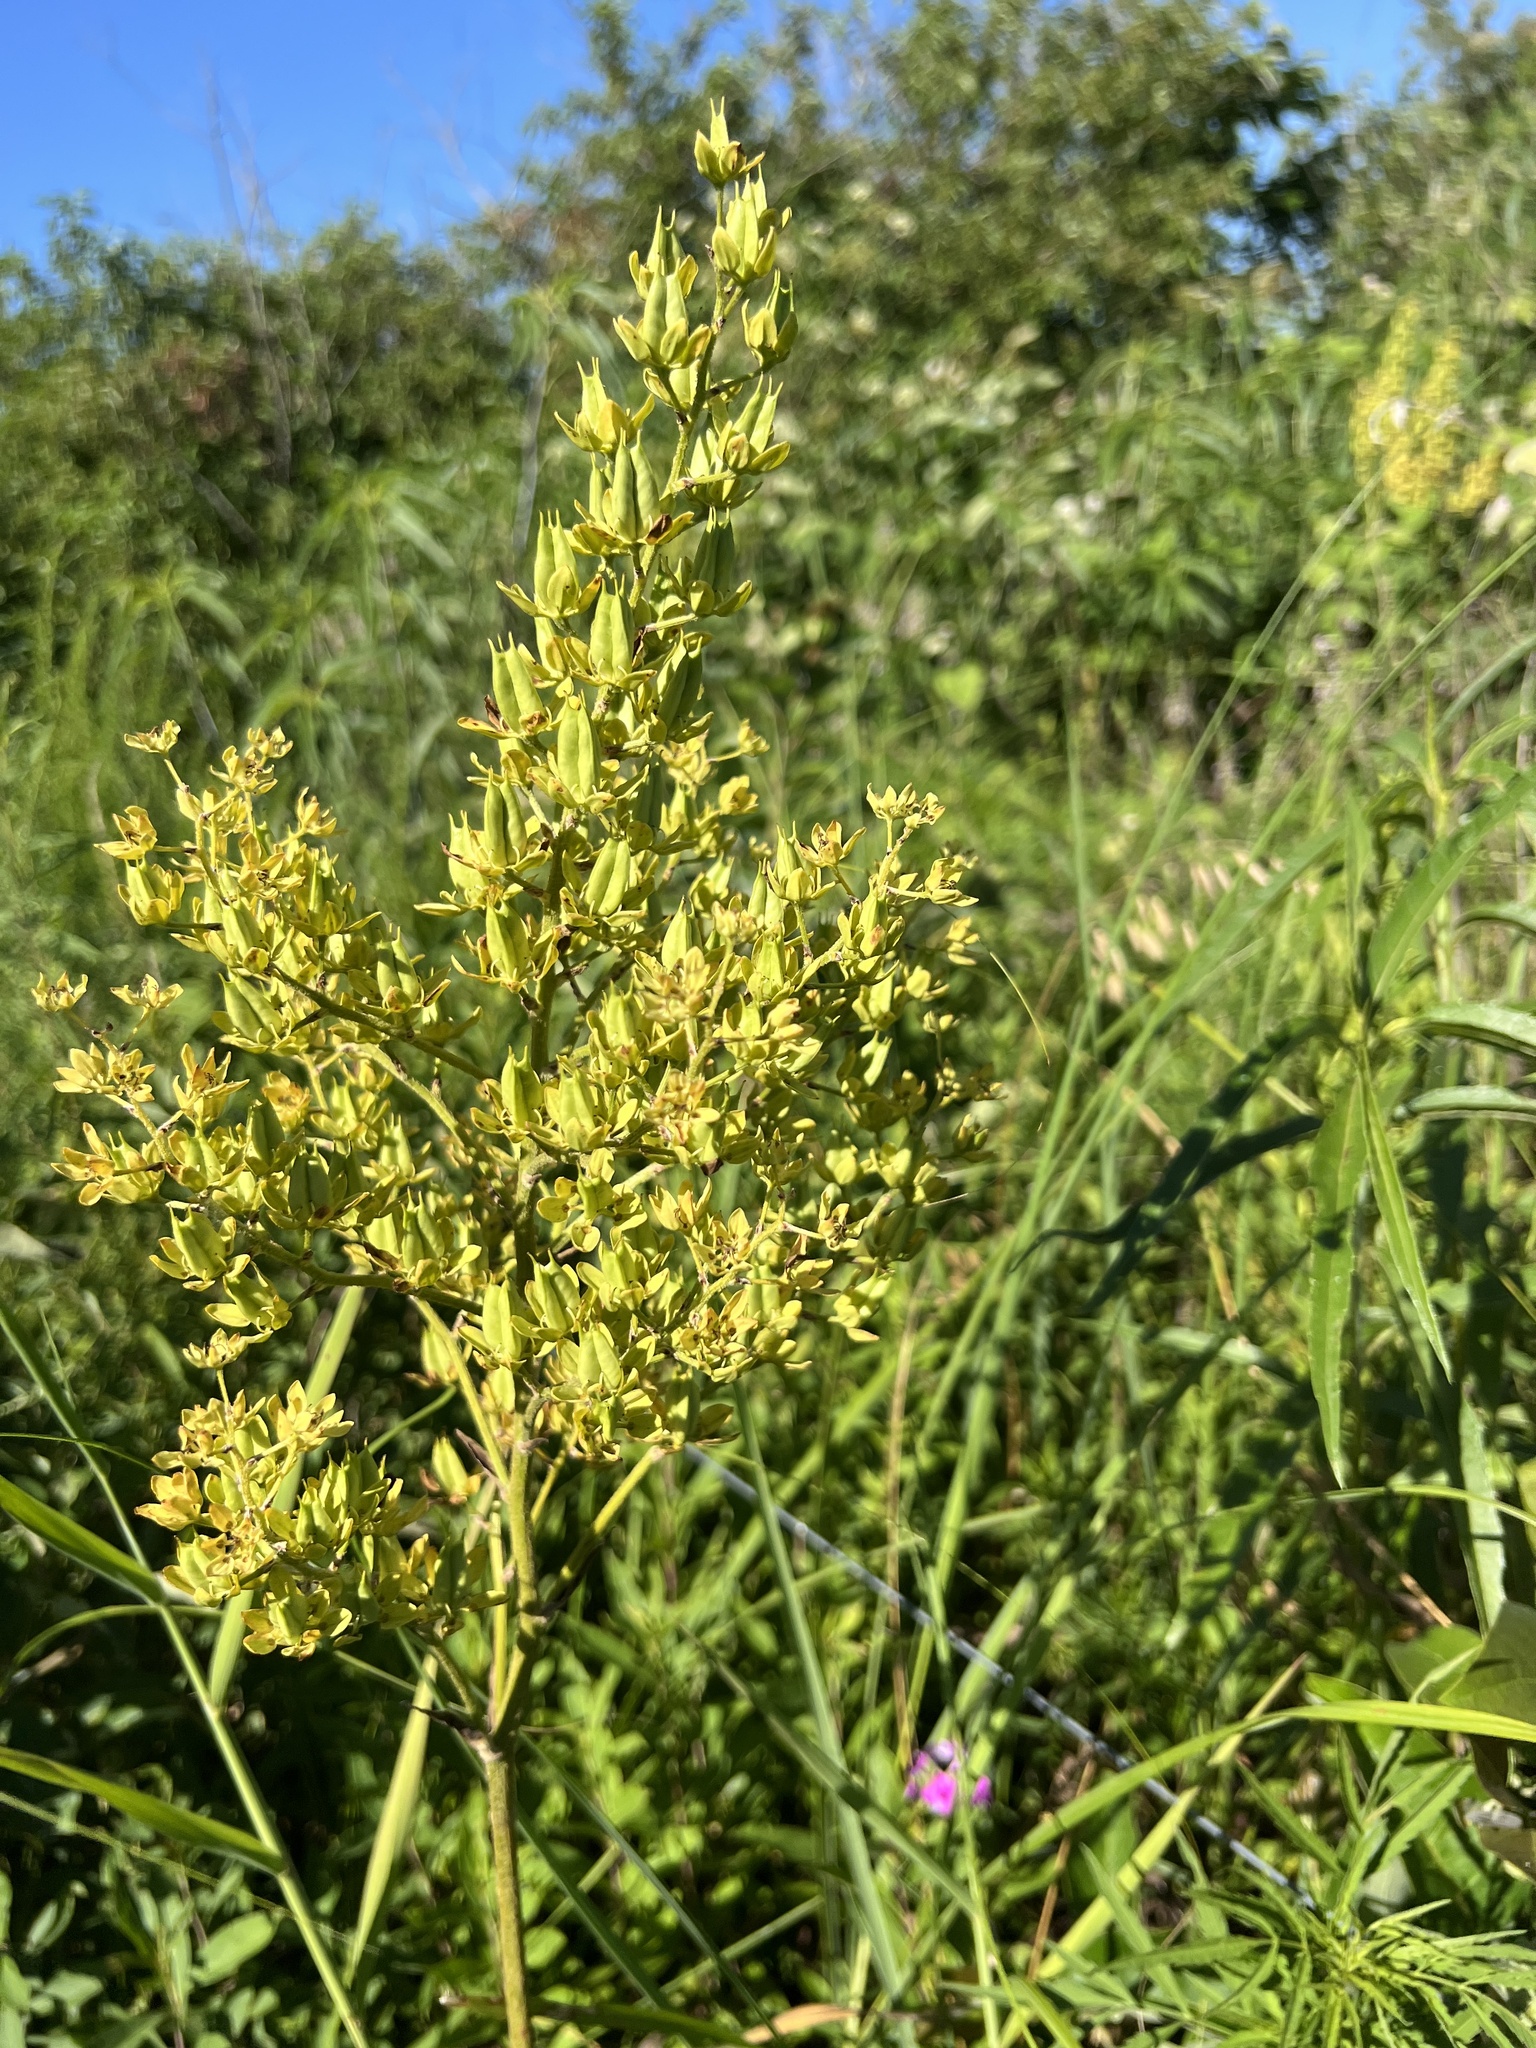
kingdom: Plantae
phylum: Tracheophyta
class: Liliopsida
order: Liliales
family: Melanthiaceae
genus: Melanthium
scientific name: Melanthium virginicum
